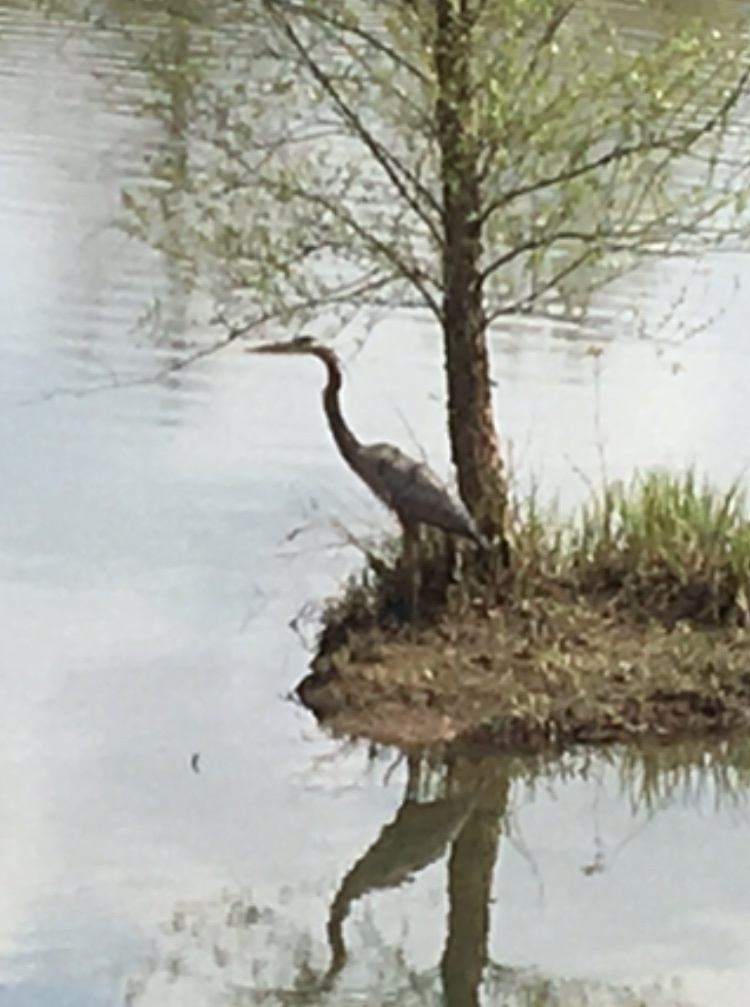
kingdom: Animalia
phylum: Chordata
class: Aves
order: Pelecaniformes
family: Ardeidae
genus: Ardea
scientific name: Ardea herodias
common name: Great blue heron
